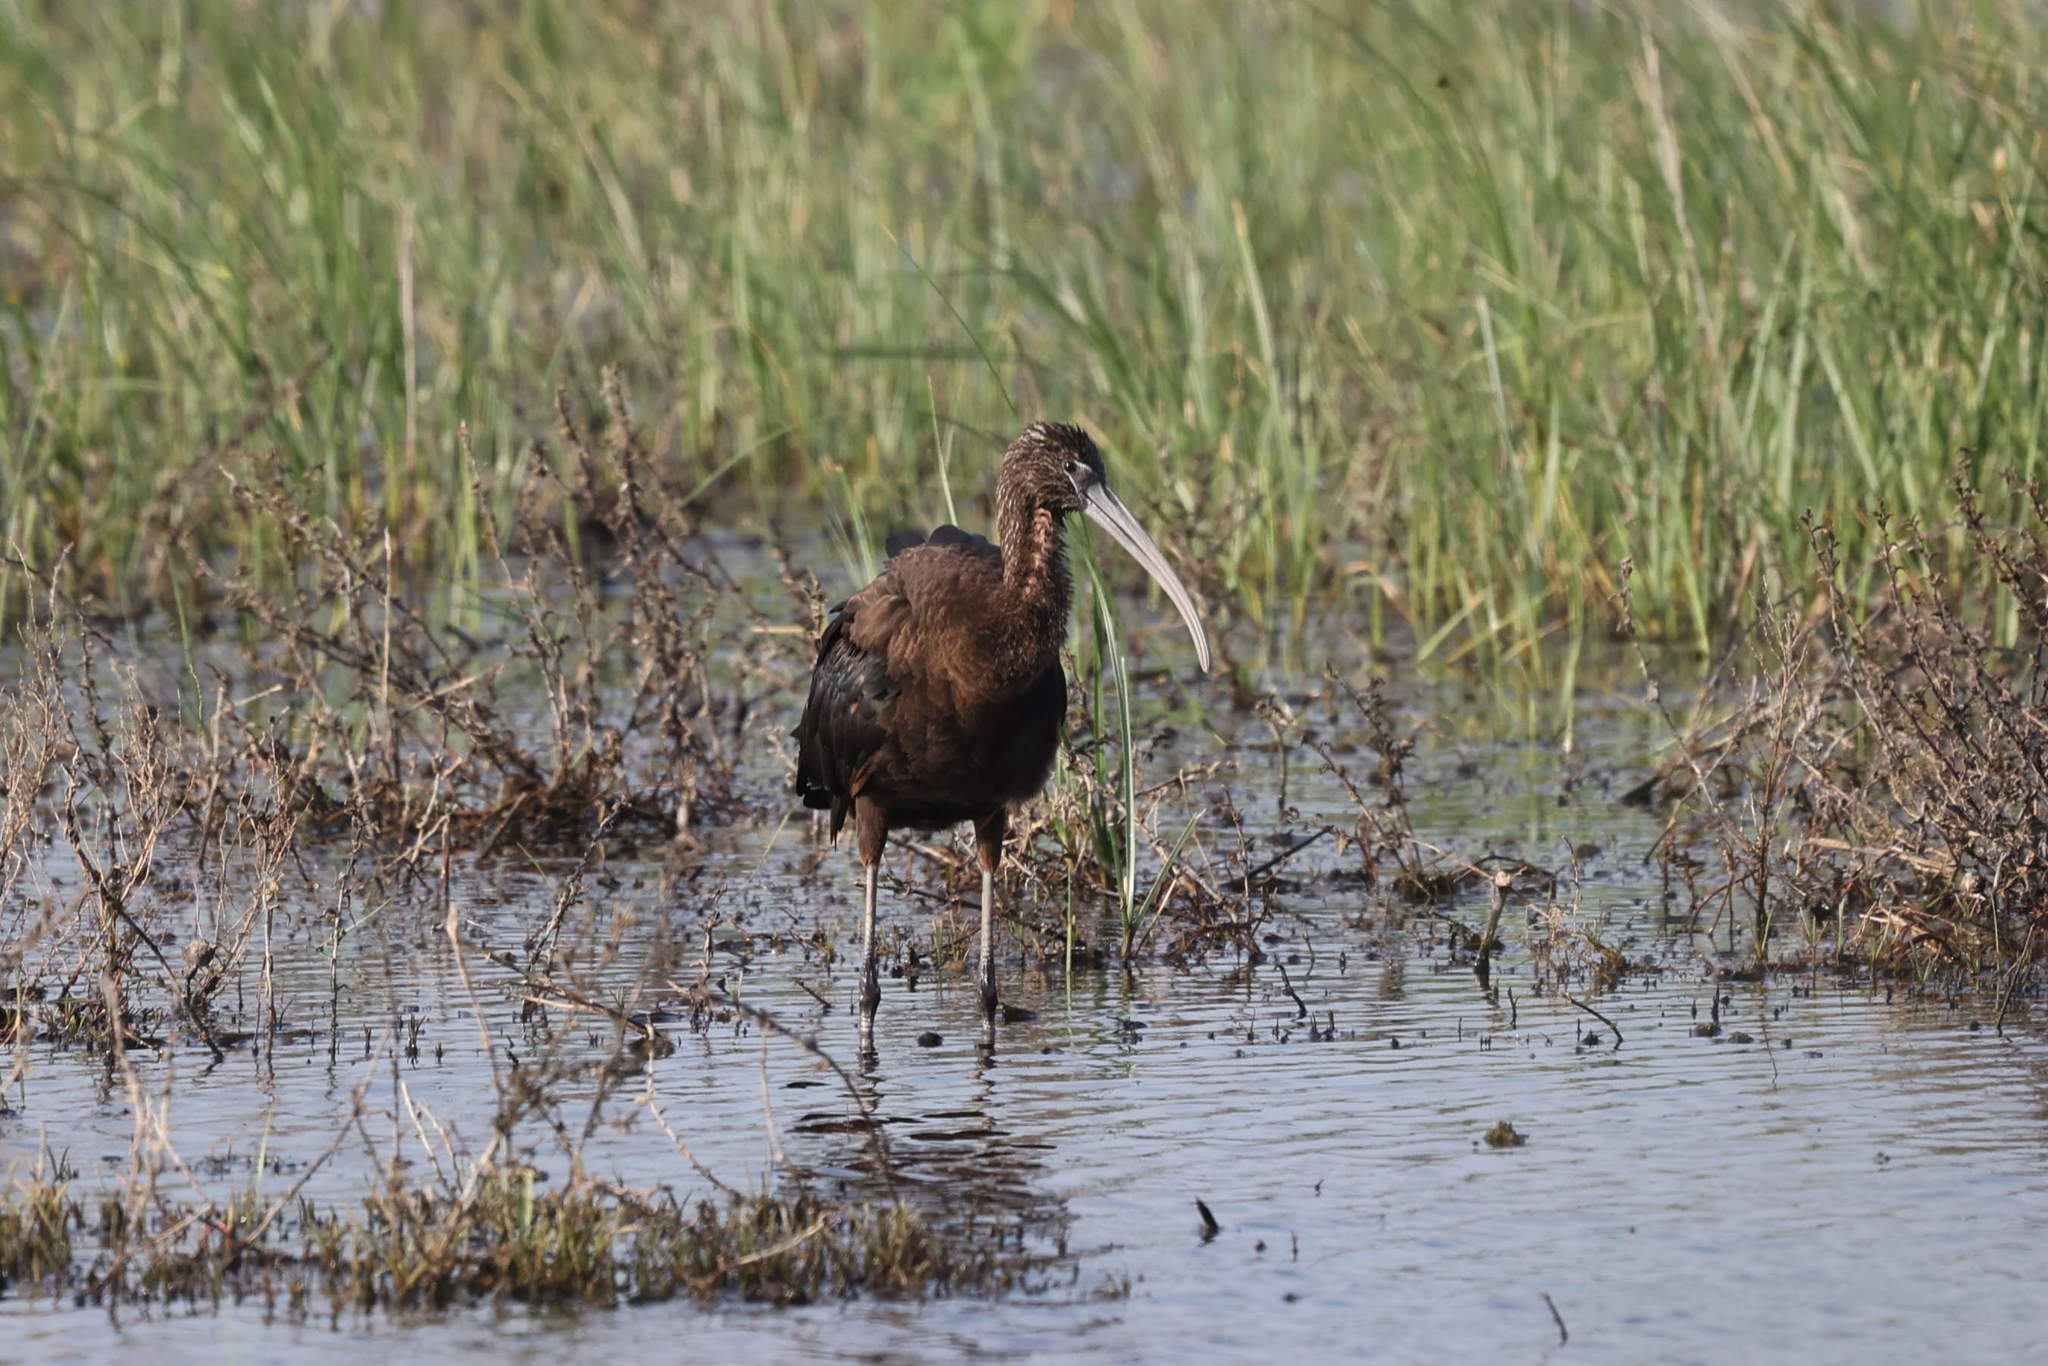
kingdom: Animalia
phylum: Chordata
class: Aves
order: Pelecaniformes
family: Threskiornithidae
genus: Plegadis
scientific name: Plegadis falcinellus
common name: Glossy ibis
